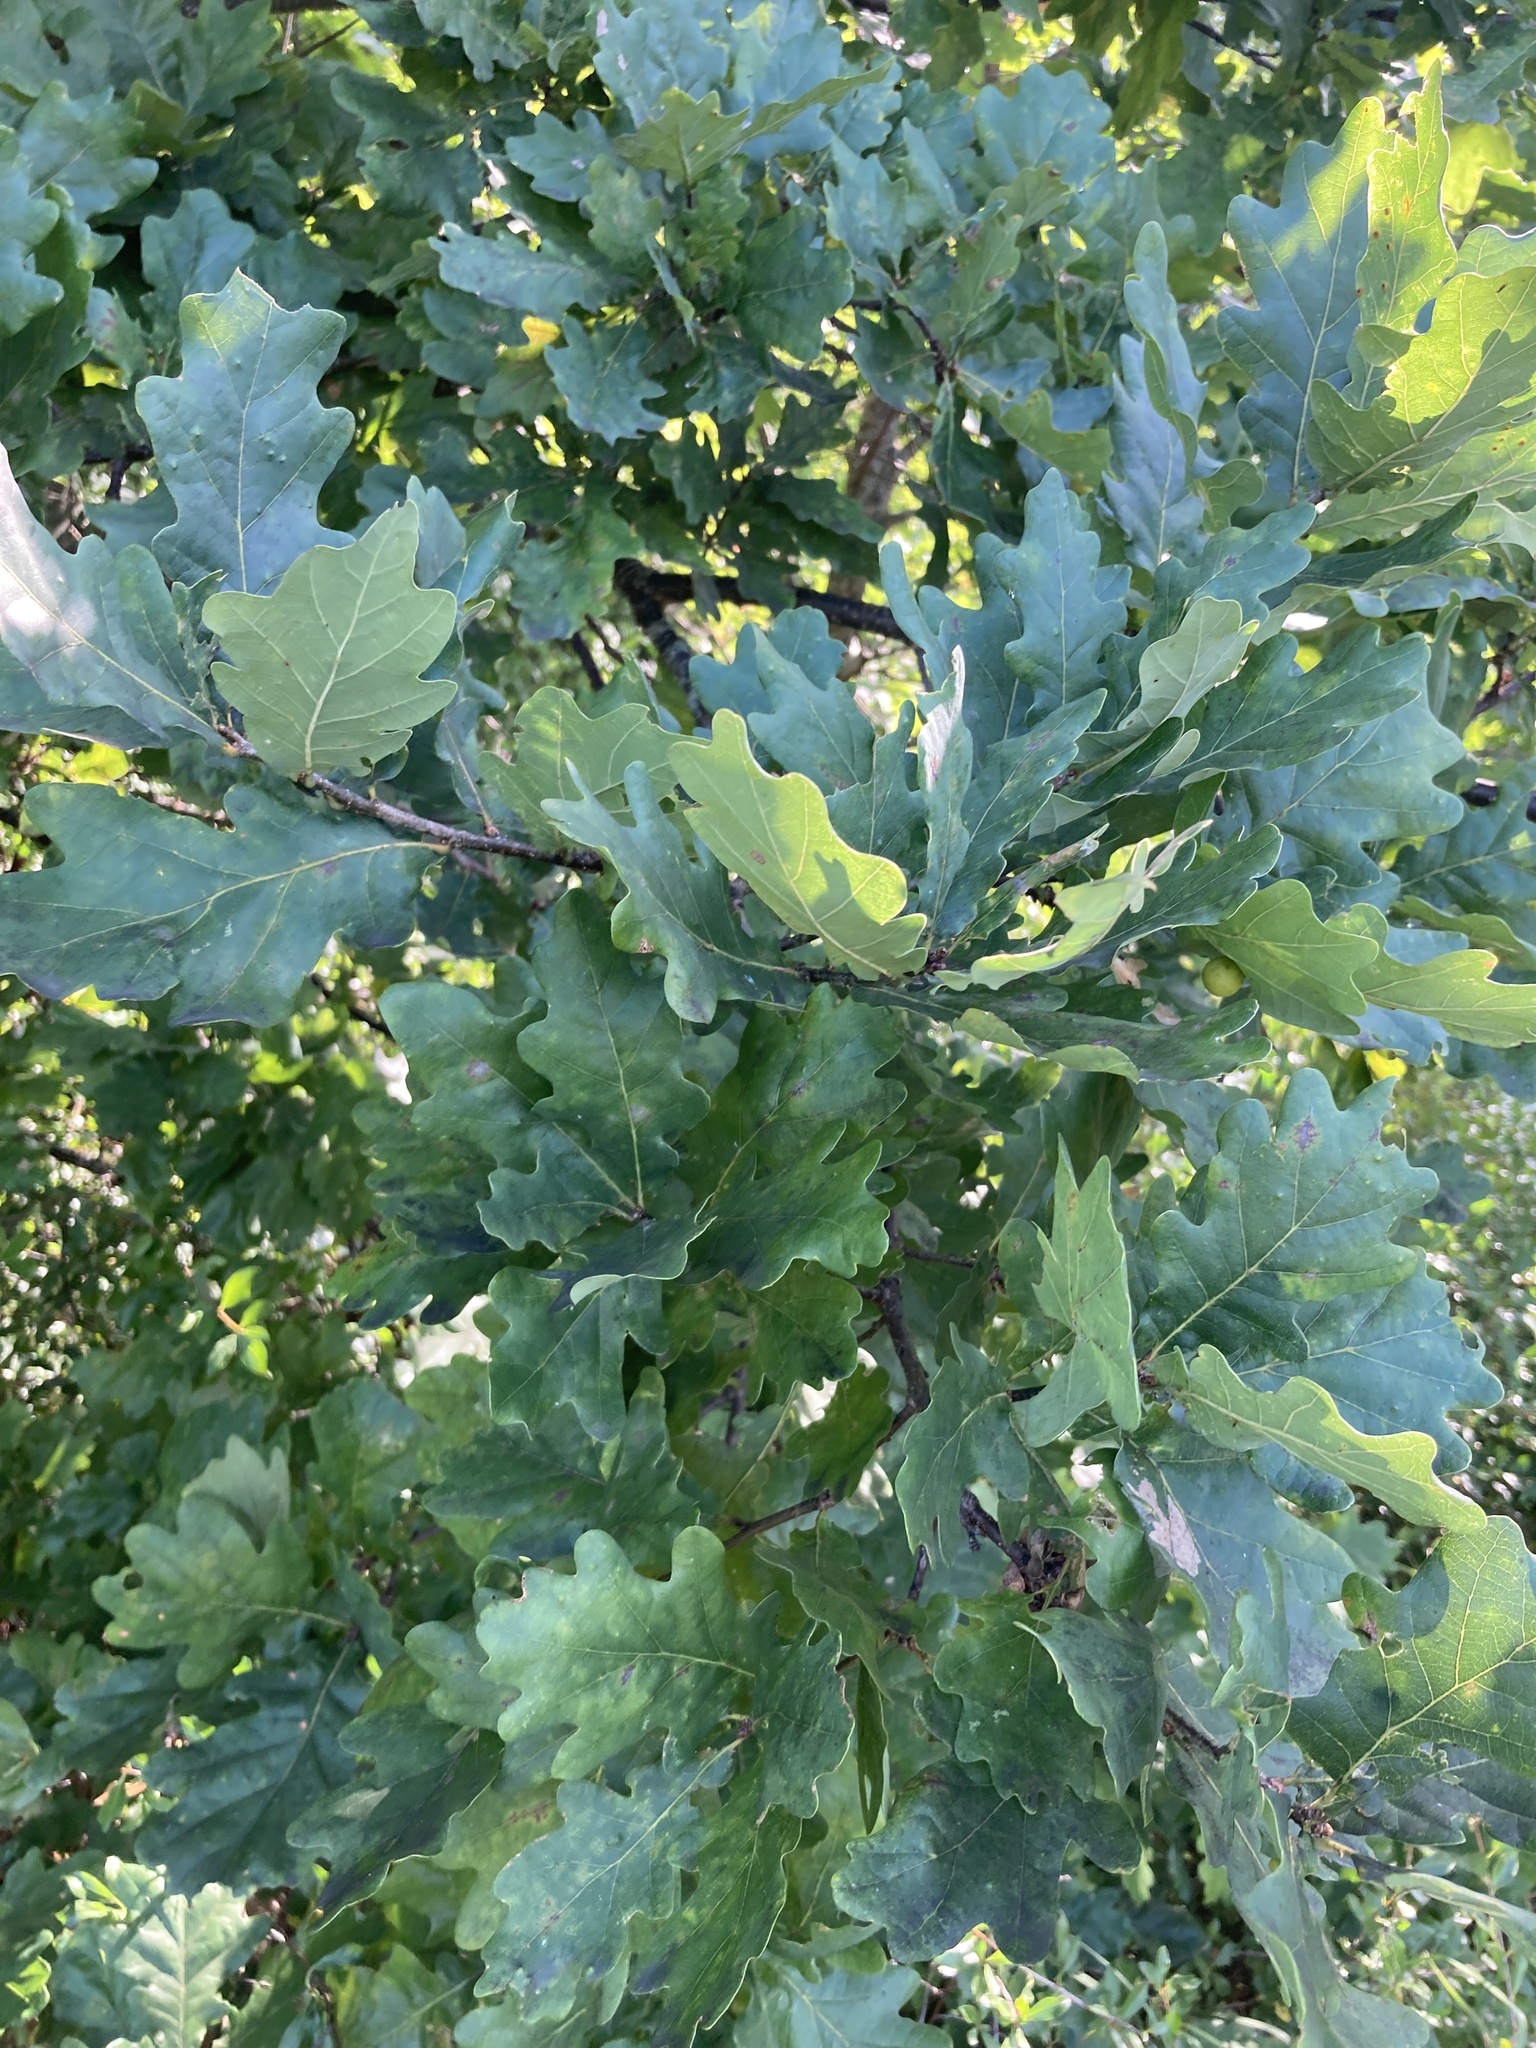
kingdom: Plantae
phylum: Tracheophyta
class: Magnoliopsida
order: Fagales
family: Fagaceae
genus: Quercus
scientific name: Quercus robur
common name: Pedunculate oak
